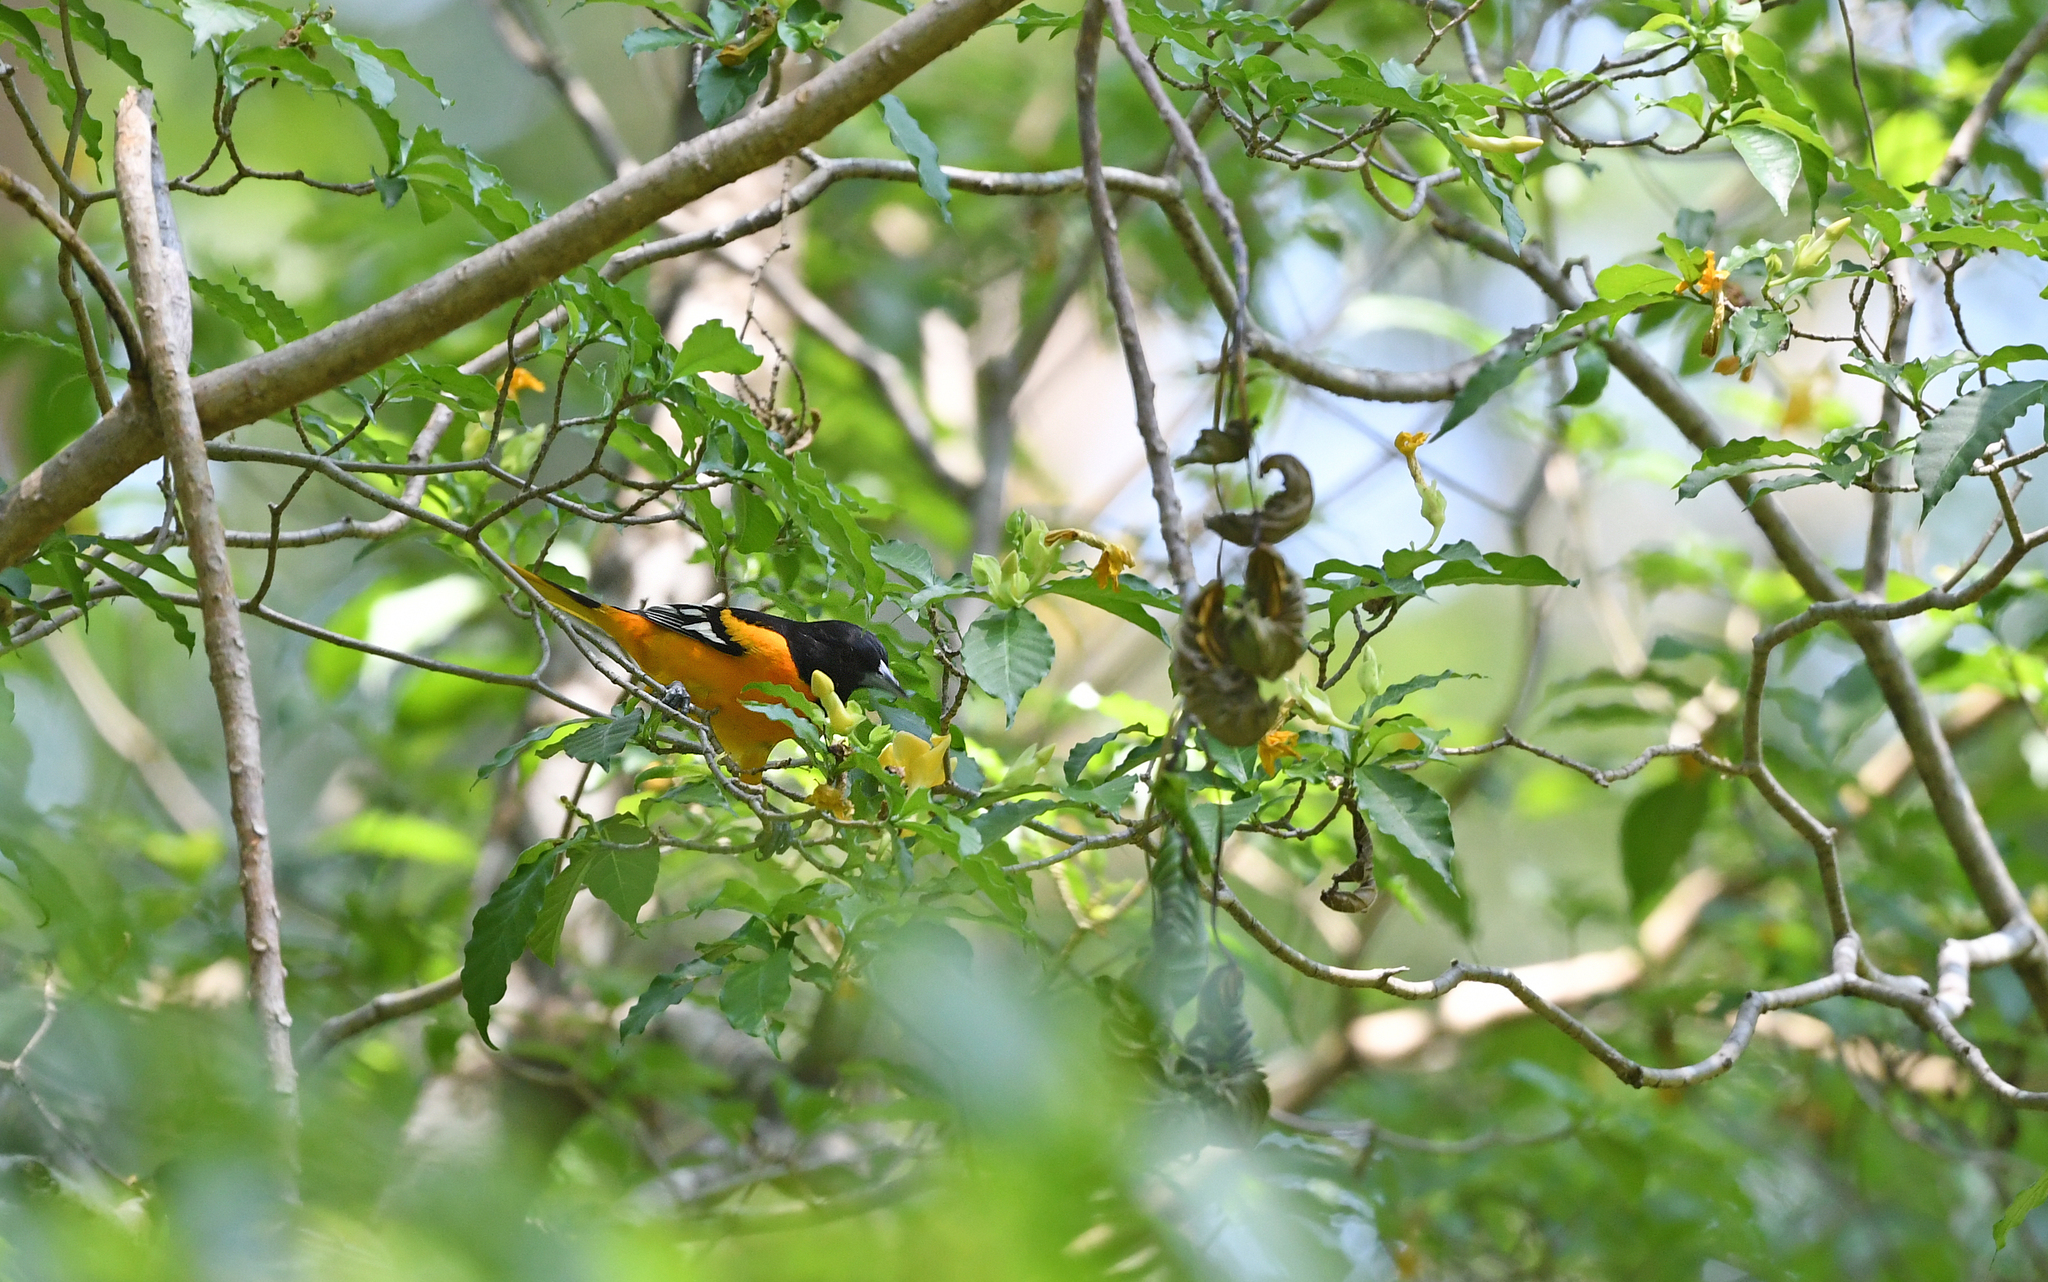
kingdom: Animalia
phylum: Chordata
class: Aves
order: Passeriformes
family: Icteridae
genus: Icterus
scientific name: Icterus galbula
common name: Baltimore oriole
